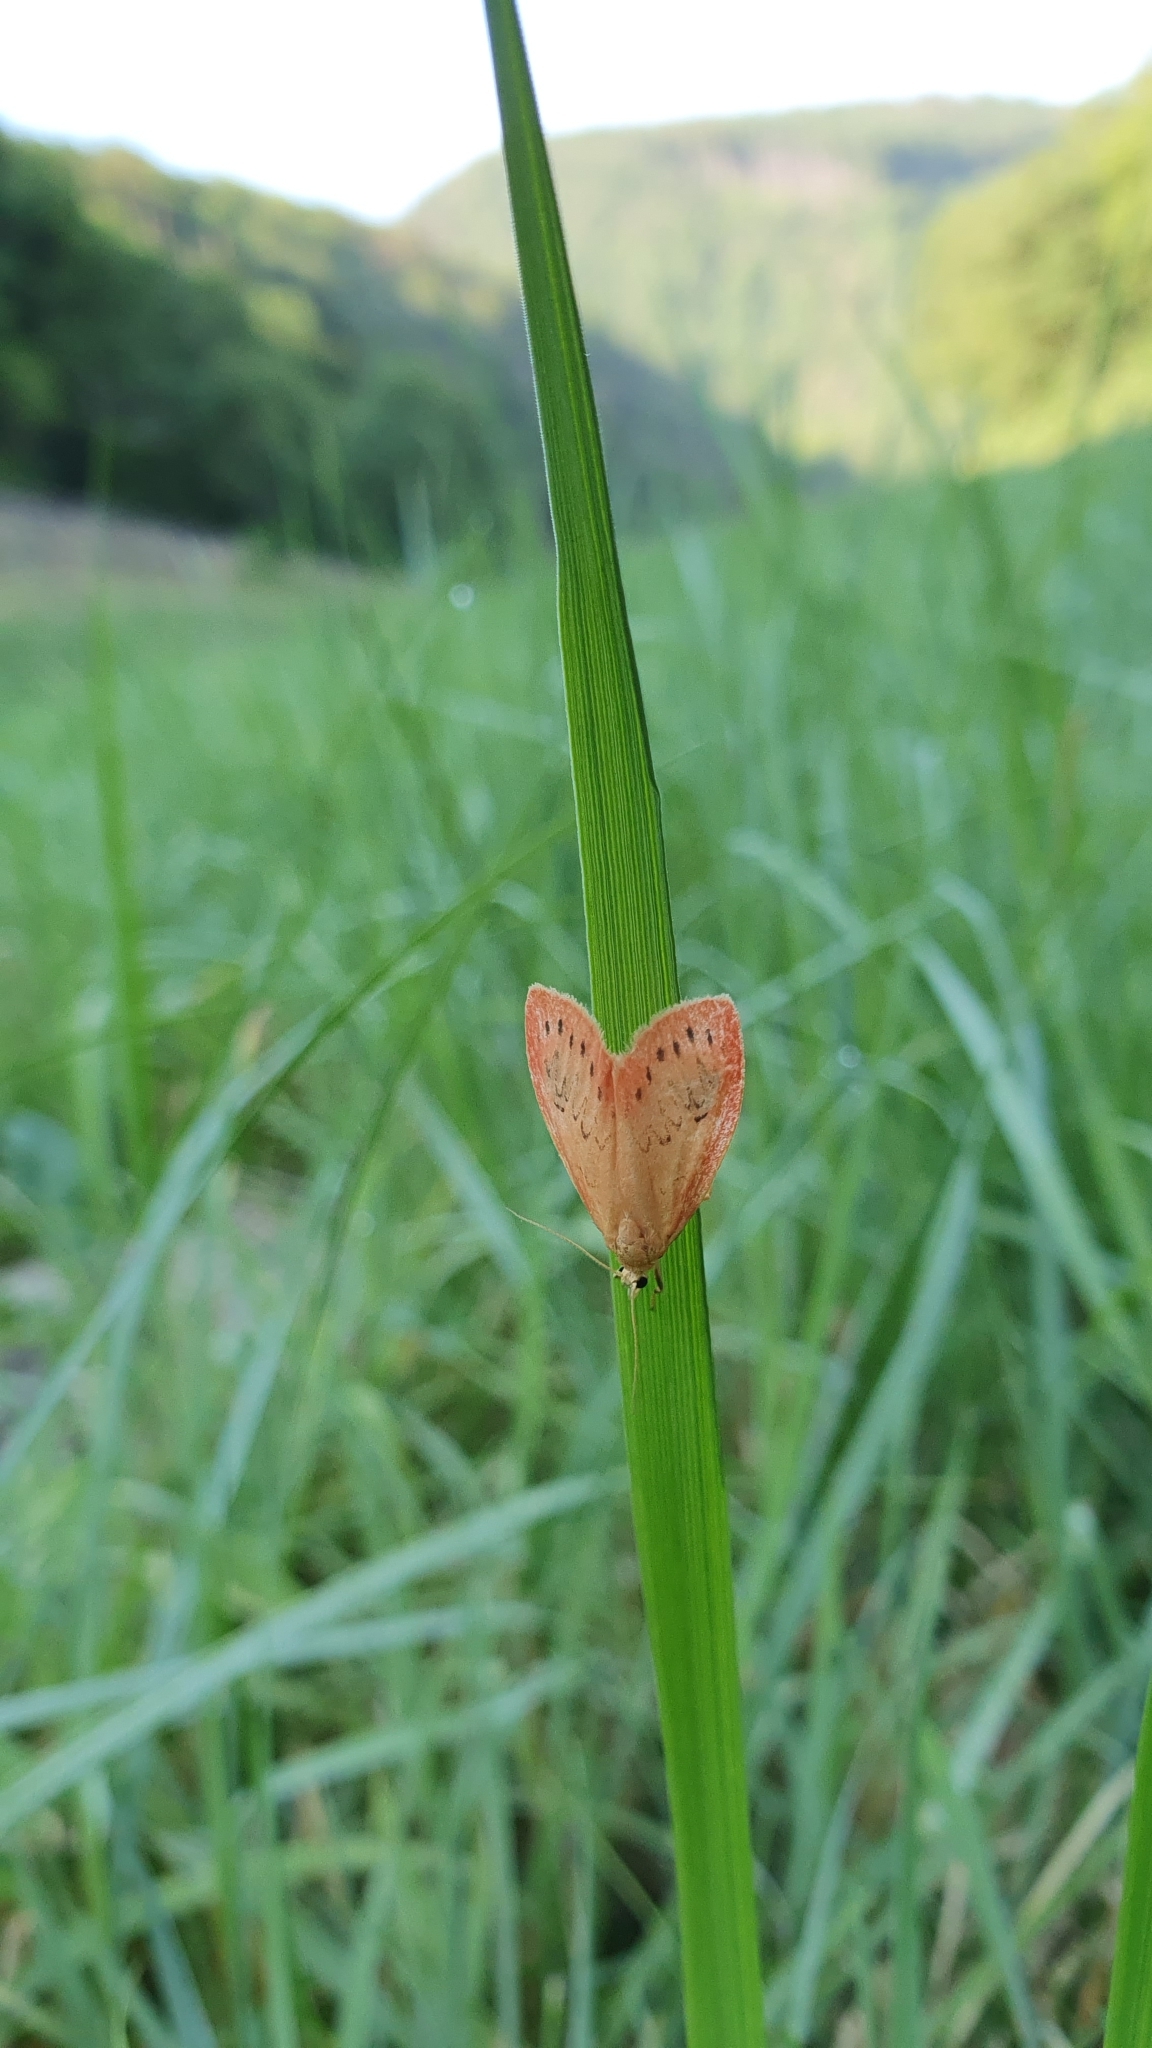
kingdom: Animalia
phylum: Arthropoda
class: Insecta
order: Lepidoptera
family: Erebidae
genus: Miltochrista
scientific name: Miltochrista miniata
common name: Rosy footman
